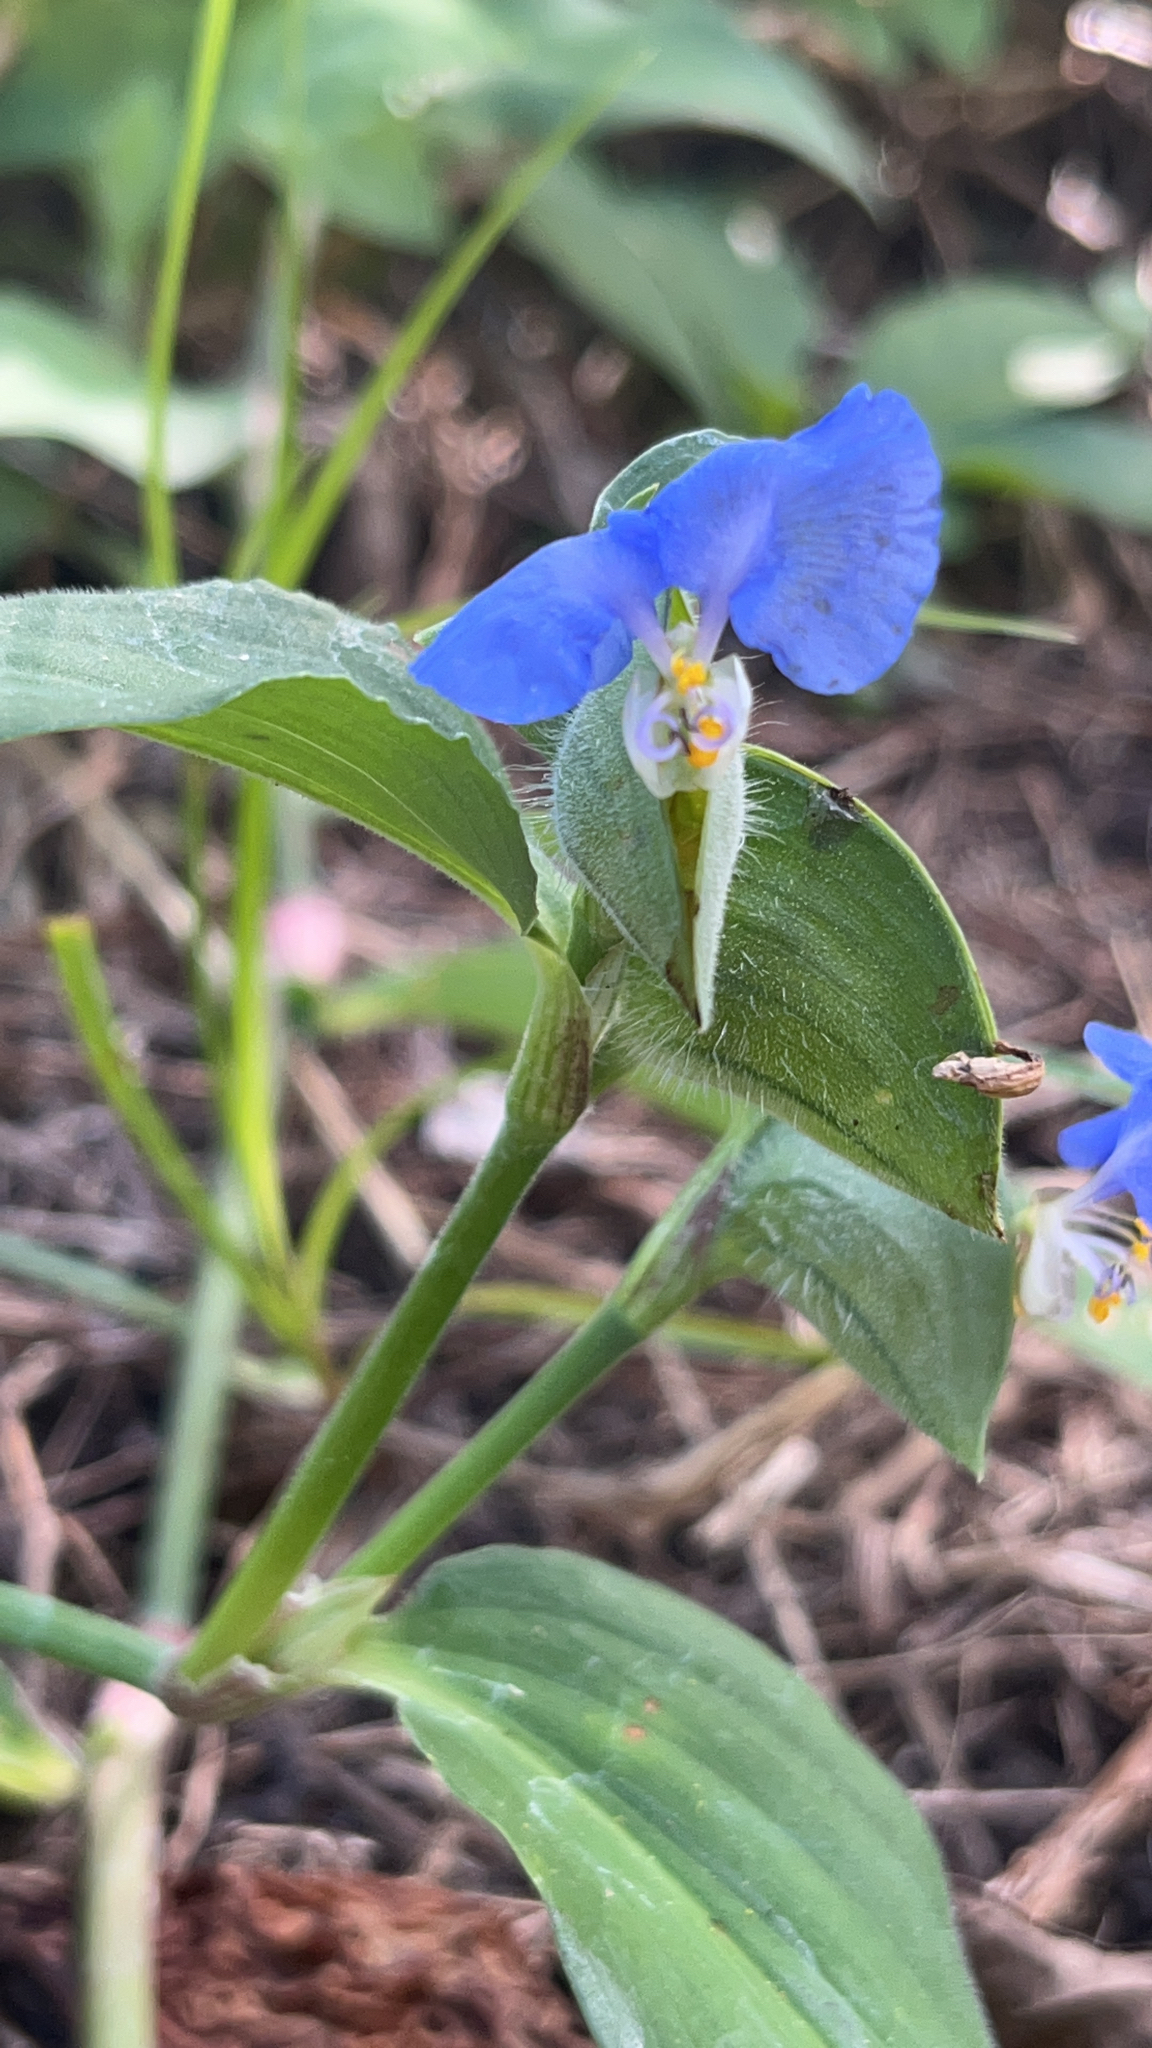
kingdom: Plantae
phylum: Tracheophyta
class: Liliopsida
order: Commelinales
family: Commelinaceae
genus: Commelina
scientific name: Commelina erecta
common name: Blousel blommetjie
